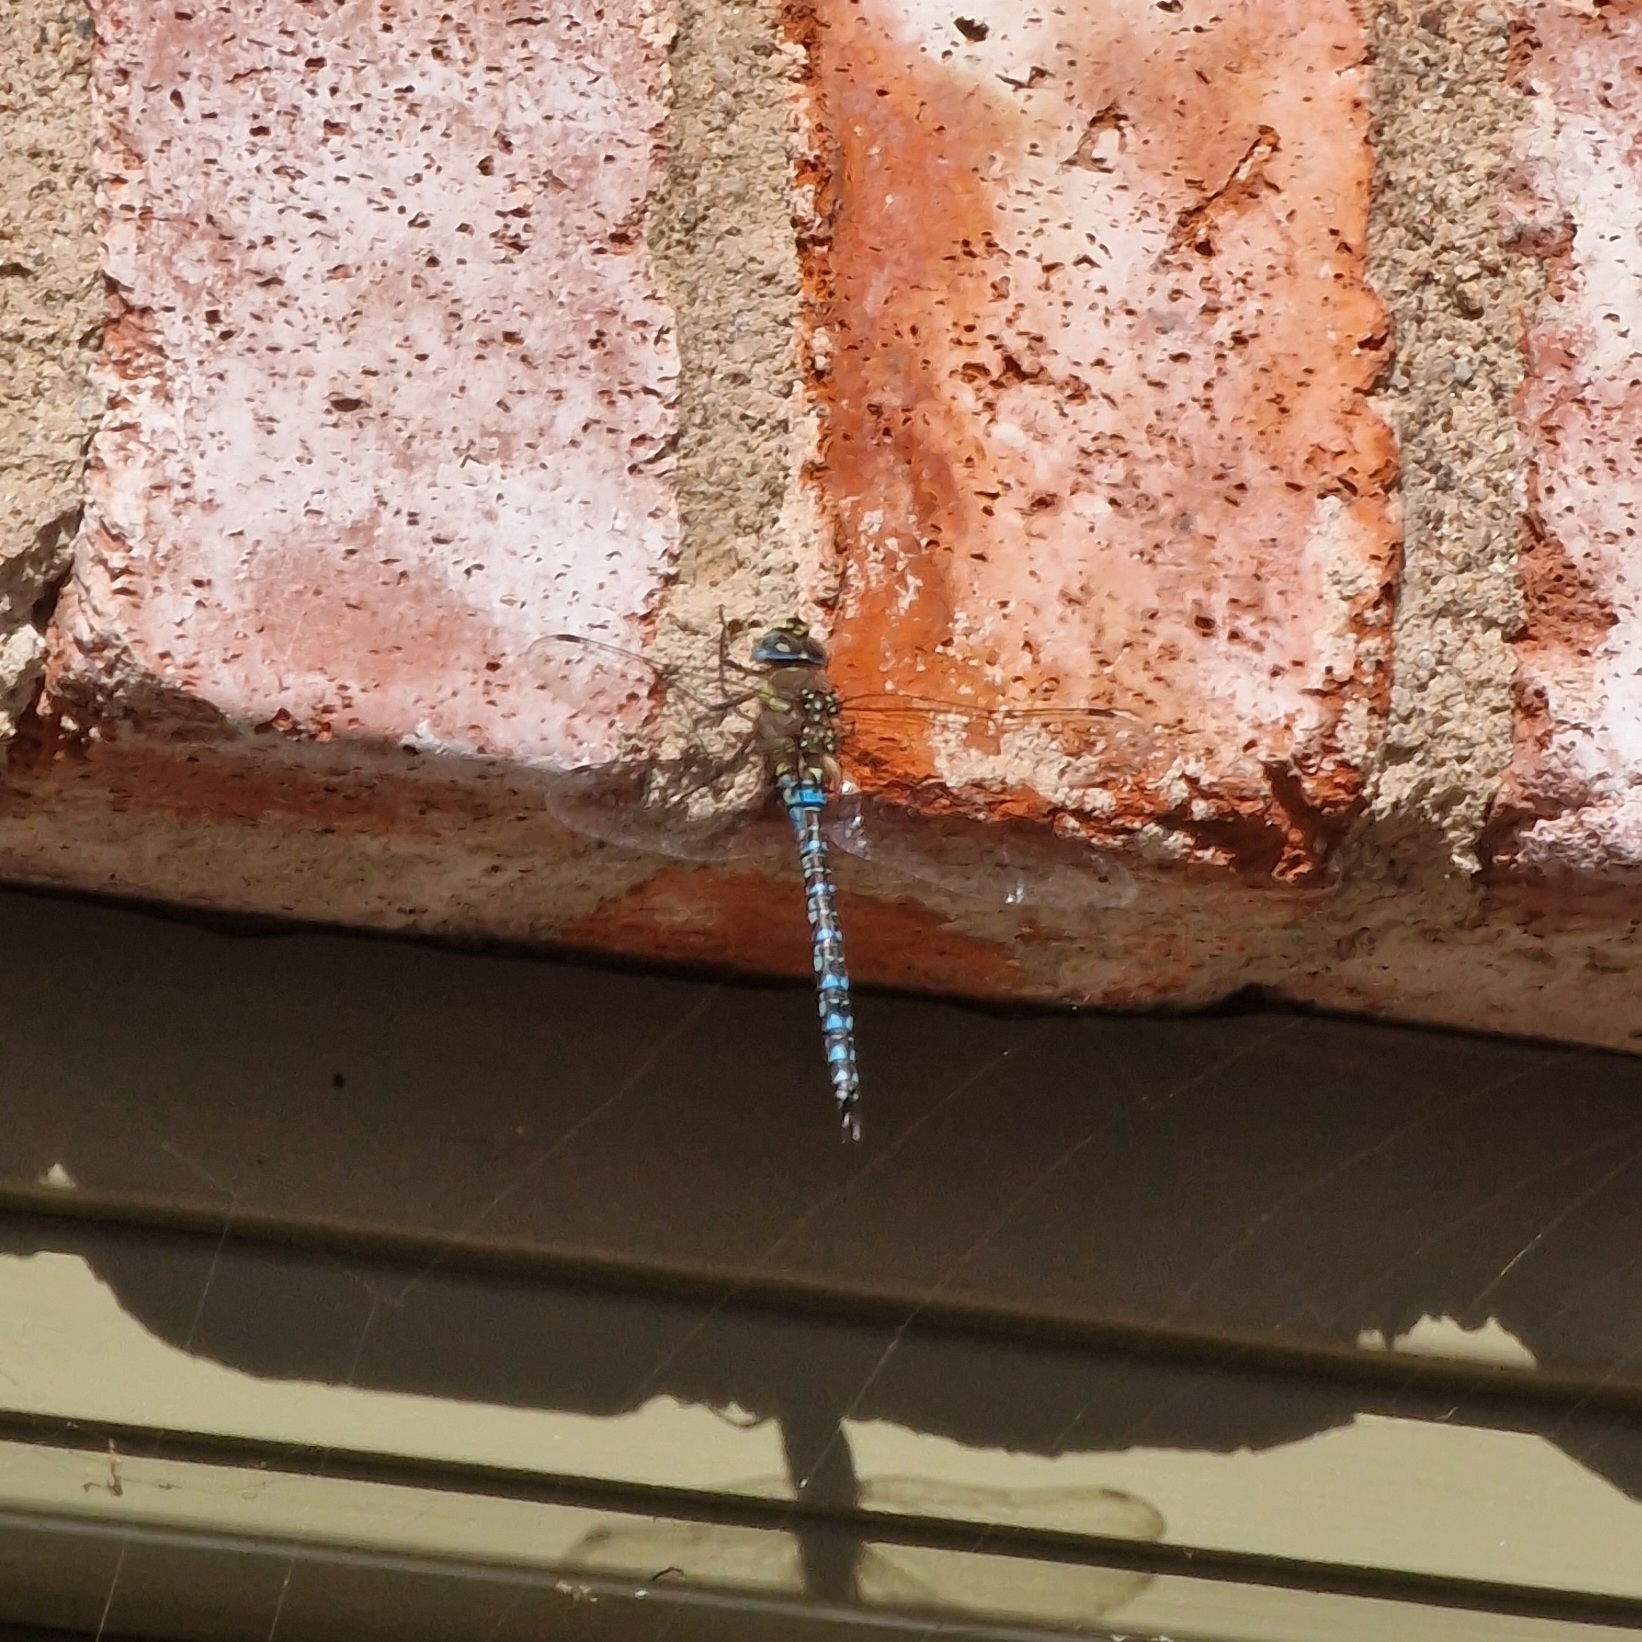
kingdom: Animalia
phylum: Arthropoda
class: Insecta
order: Odonata
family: Aeshnidae
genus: Aeshna
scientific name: Aeshna mixta
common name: Migrant hawker
